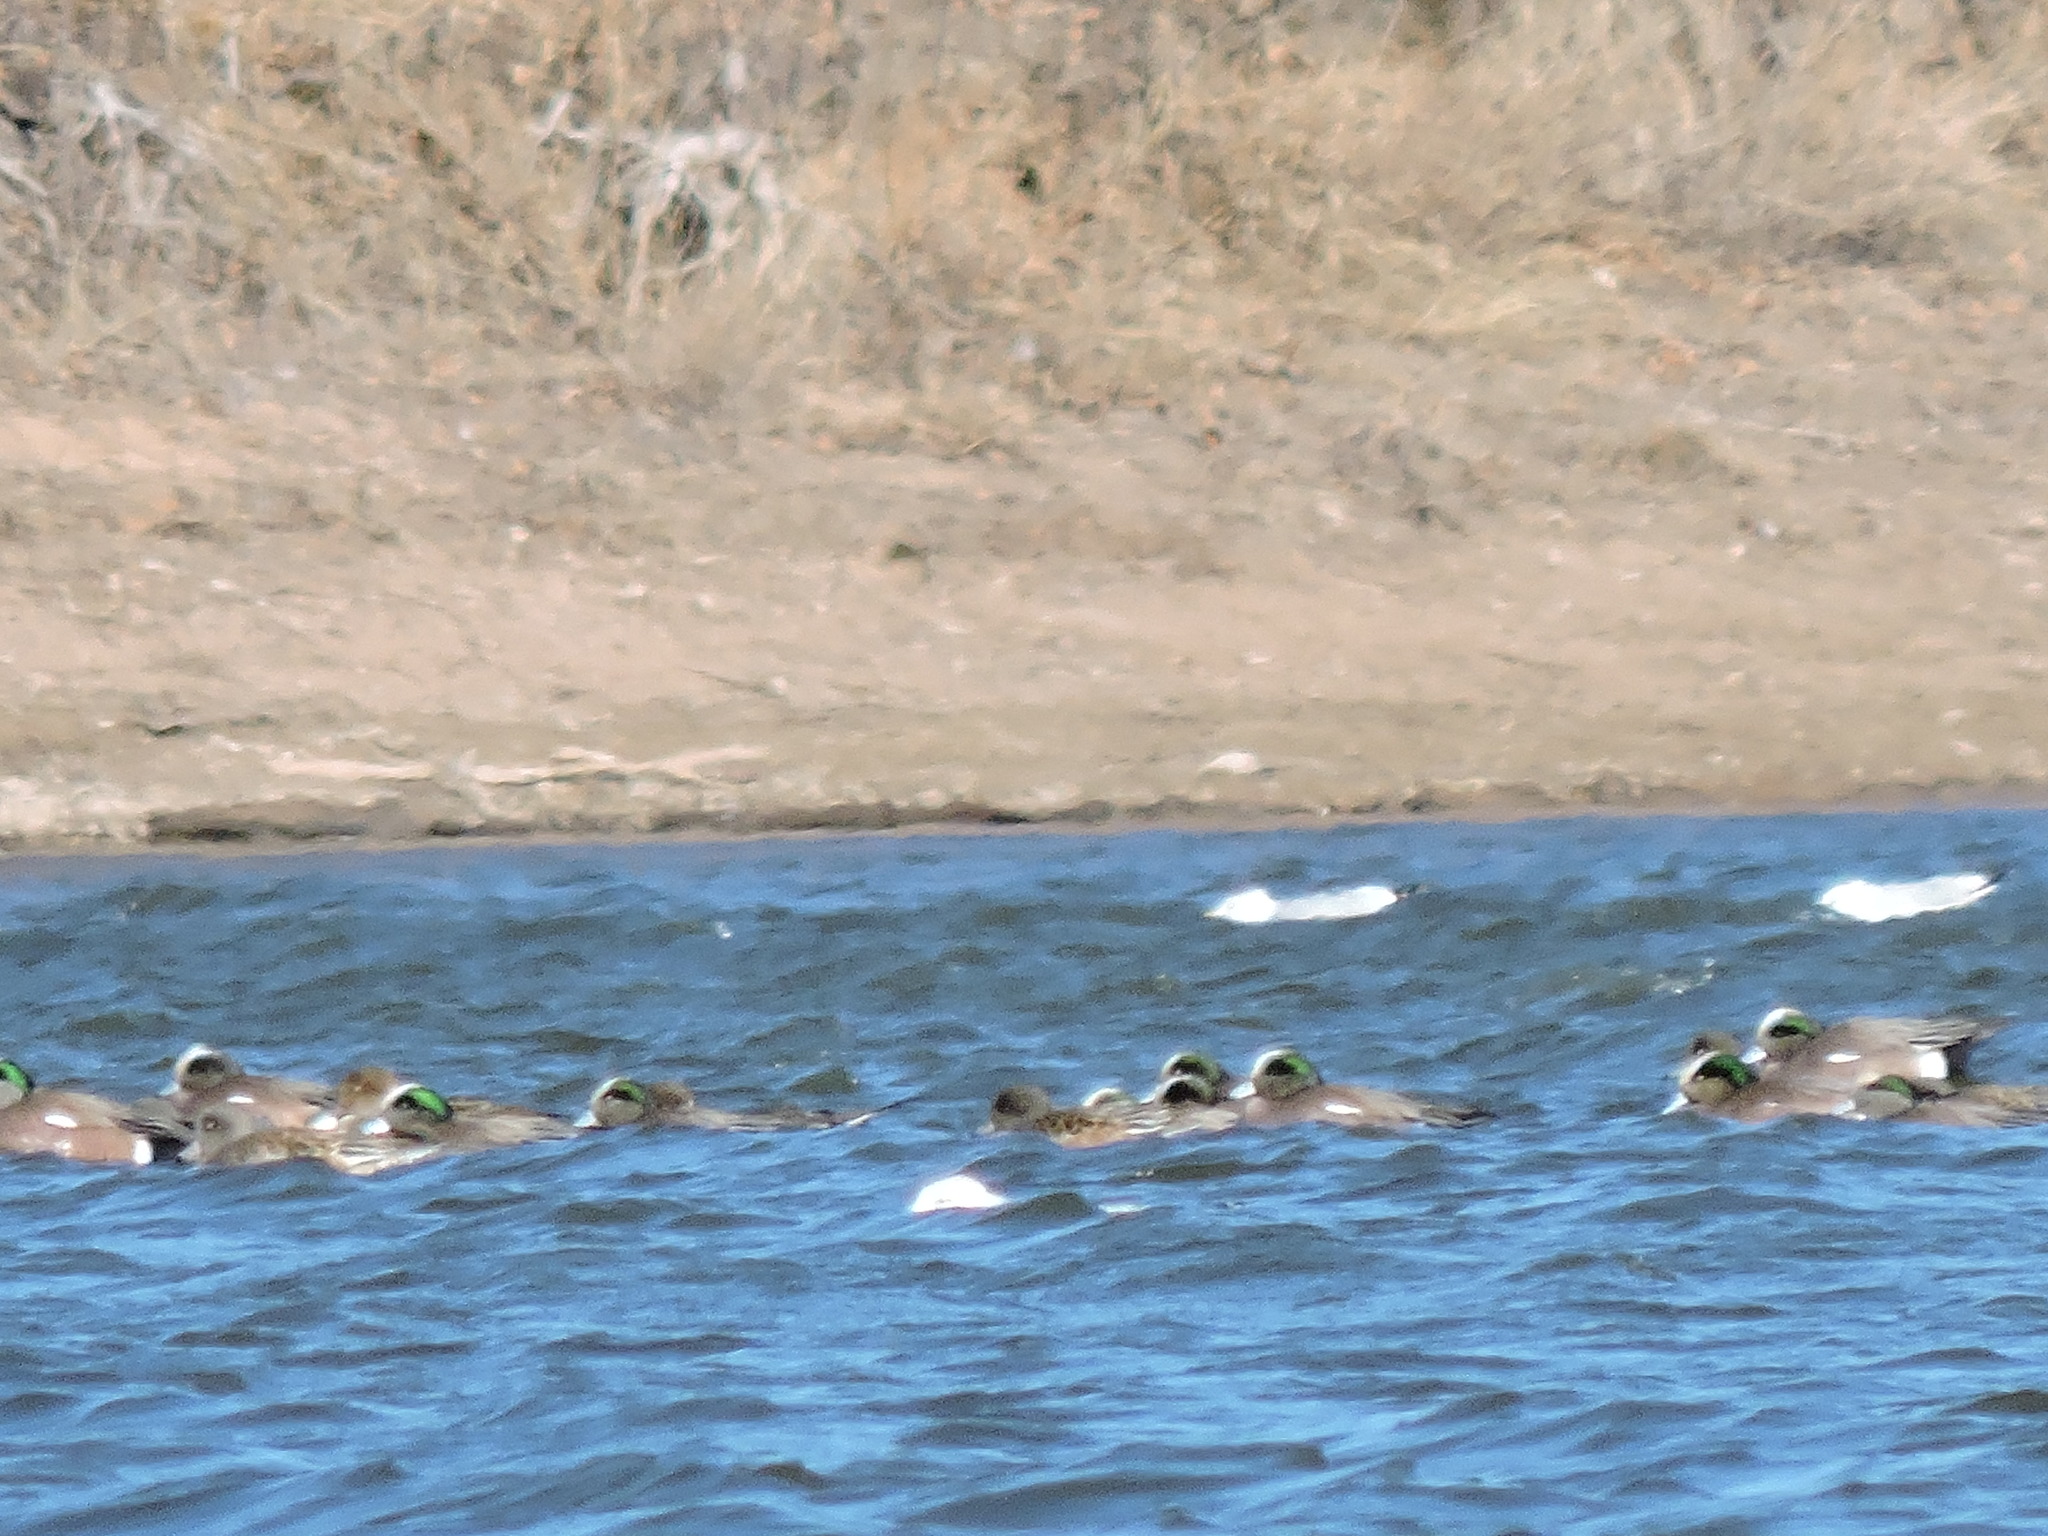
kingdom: Animalia
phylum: Chordata
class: Aves
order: Anseriformes
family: Anatidae
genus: Mareca
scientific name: Mareca americana
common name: American wigeon
